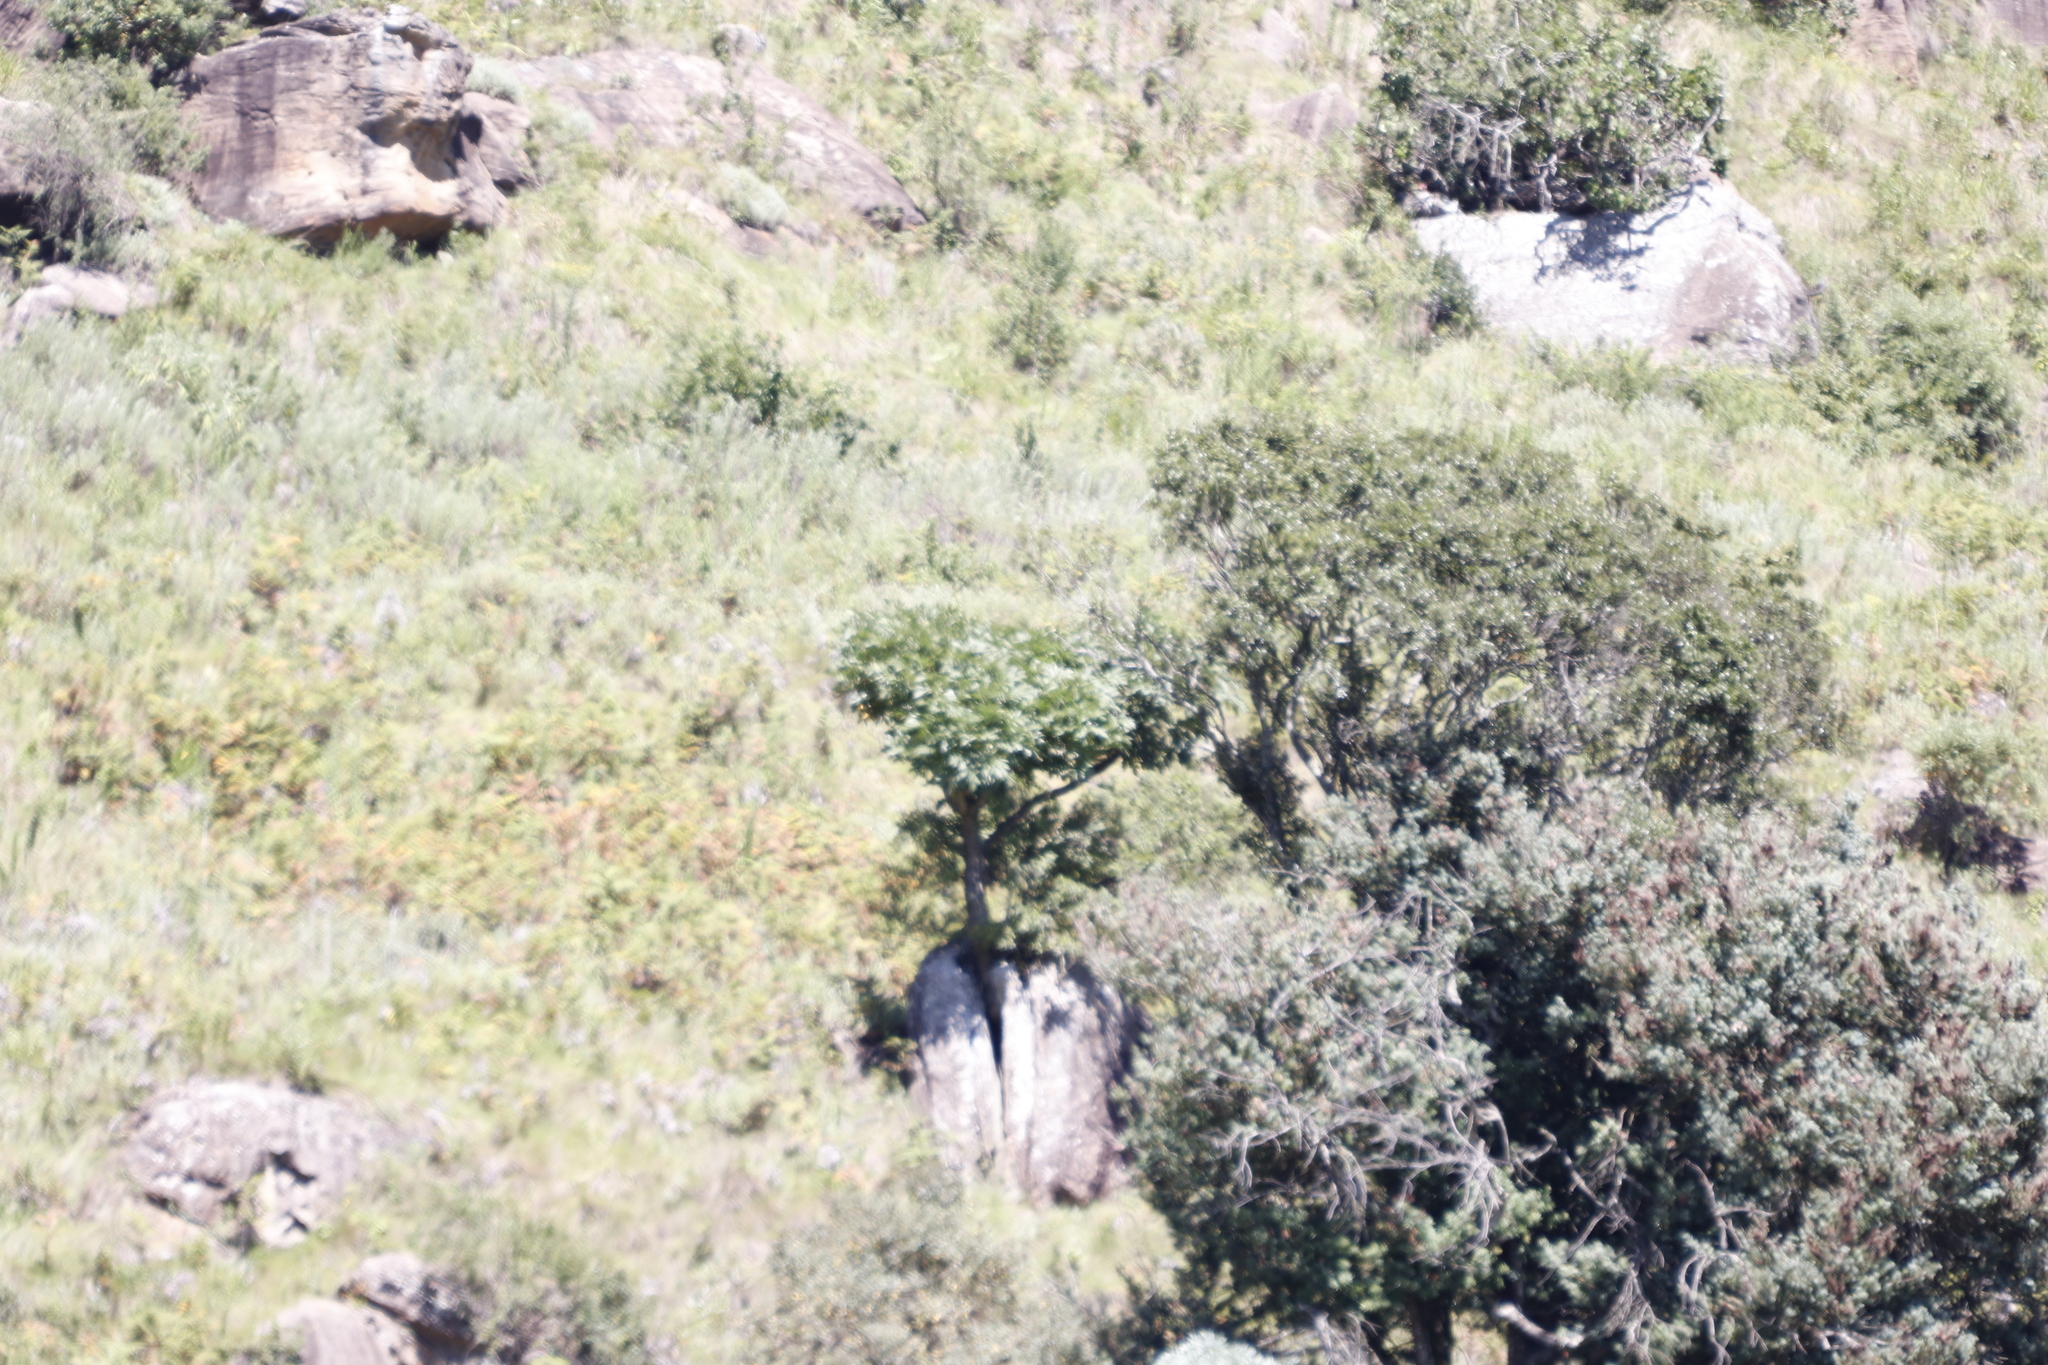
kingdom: Plantae
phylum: Tracheophyta
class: Magnoliopsida
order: Apiales
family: Araliaceae
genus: Cussonia
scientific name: Cussonia spicata
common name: Common cabbagetree
